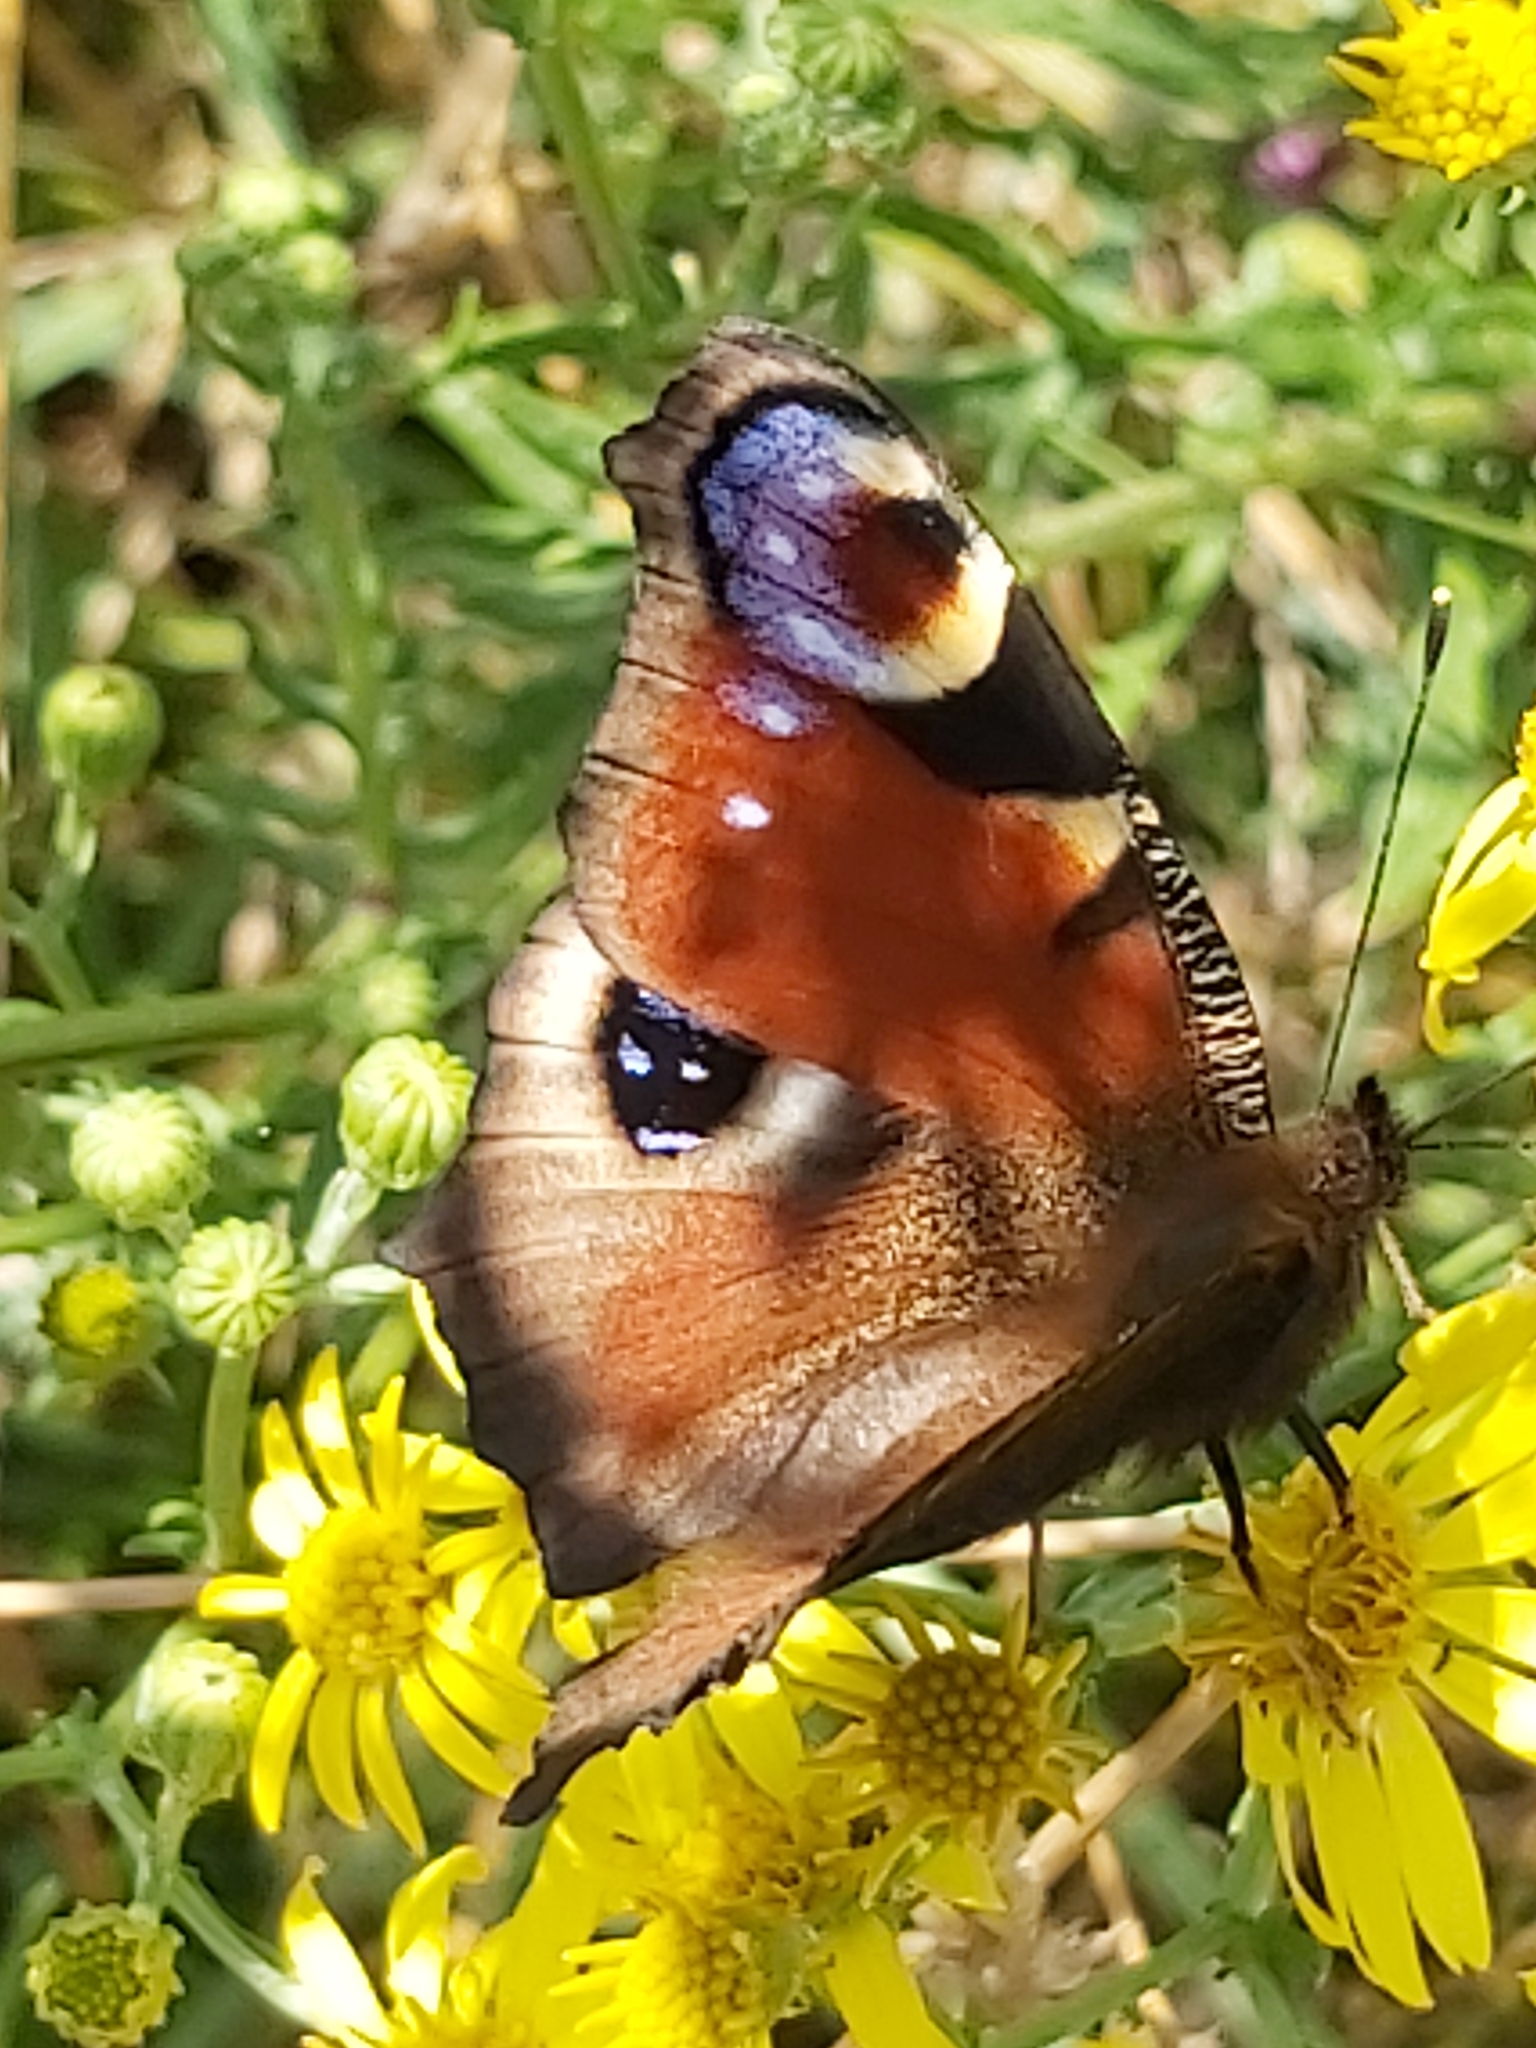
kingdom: Animalia
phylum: Arthropoda
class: Insecta
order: Lepidoptera
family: Nymphalidae
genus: Aglais
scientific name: Aglais io
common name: Peacock
